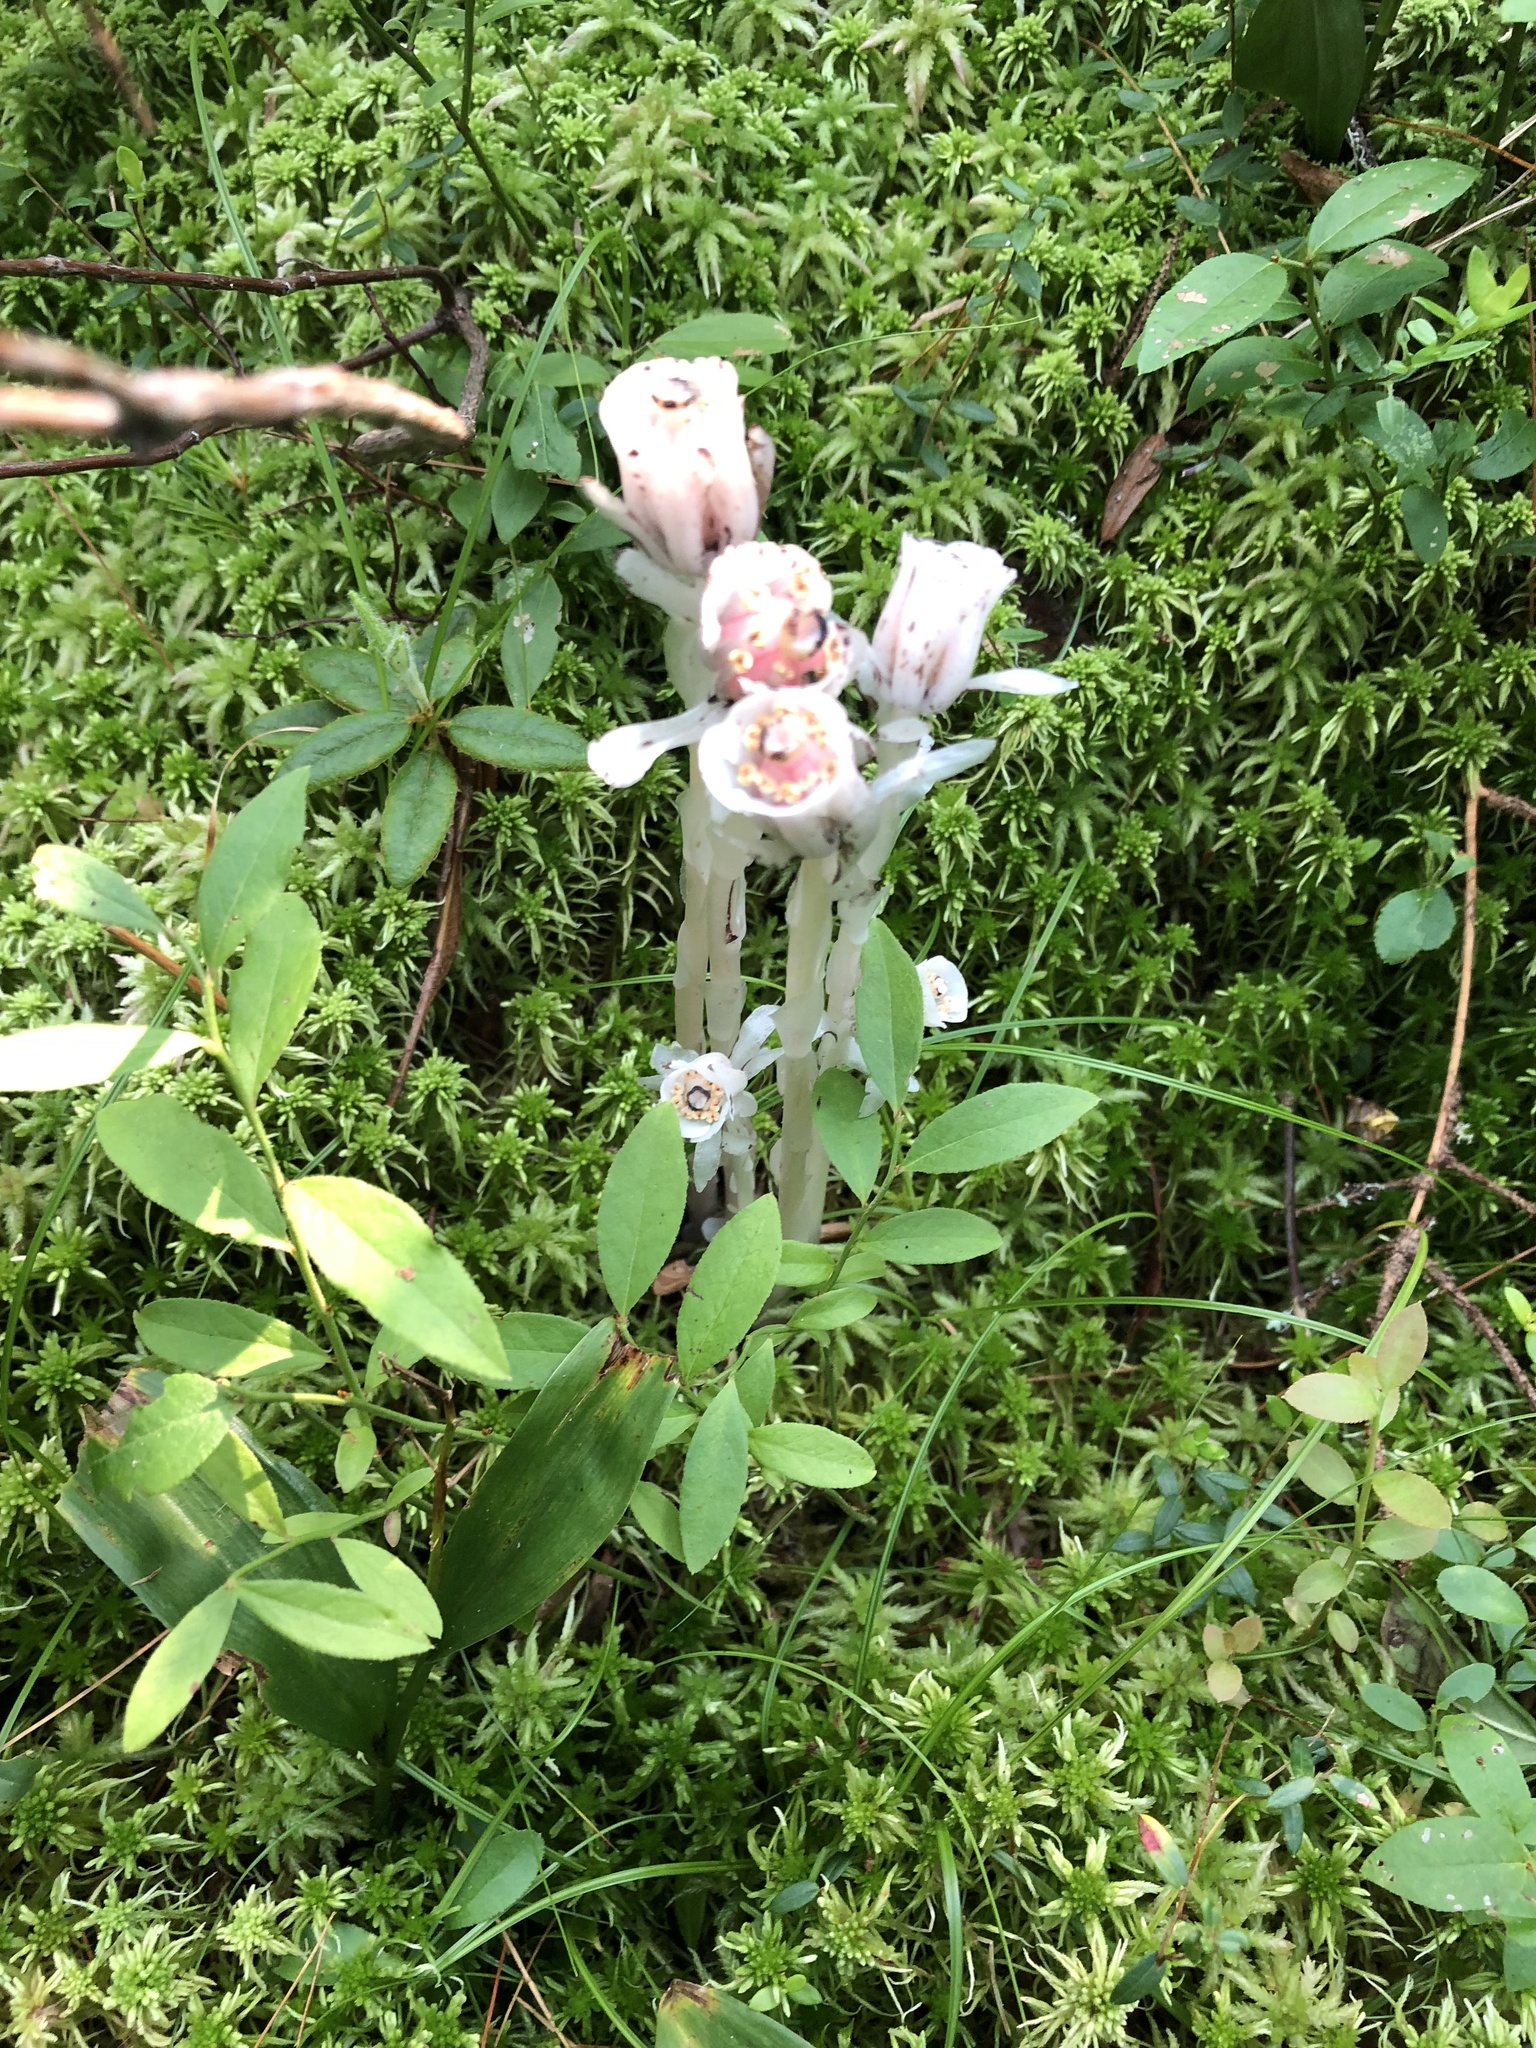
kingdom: Plantae
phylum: Tracheophyta
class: Magnoliopsida
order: Ericales
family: Ericaceae
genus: Monotropa
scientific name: Monotropa uniflora
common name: Convulsion root
